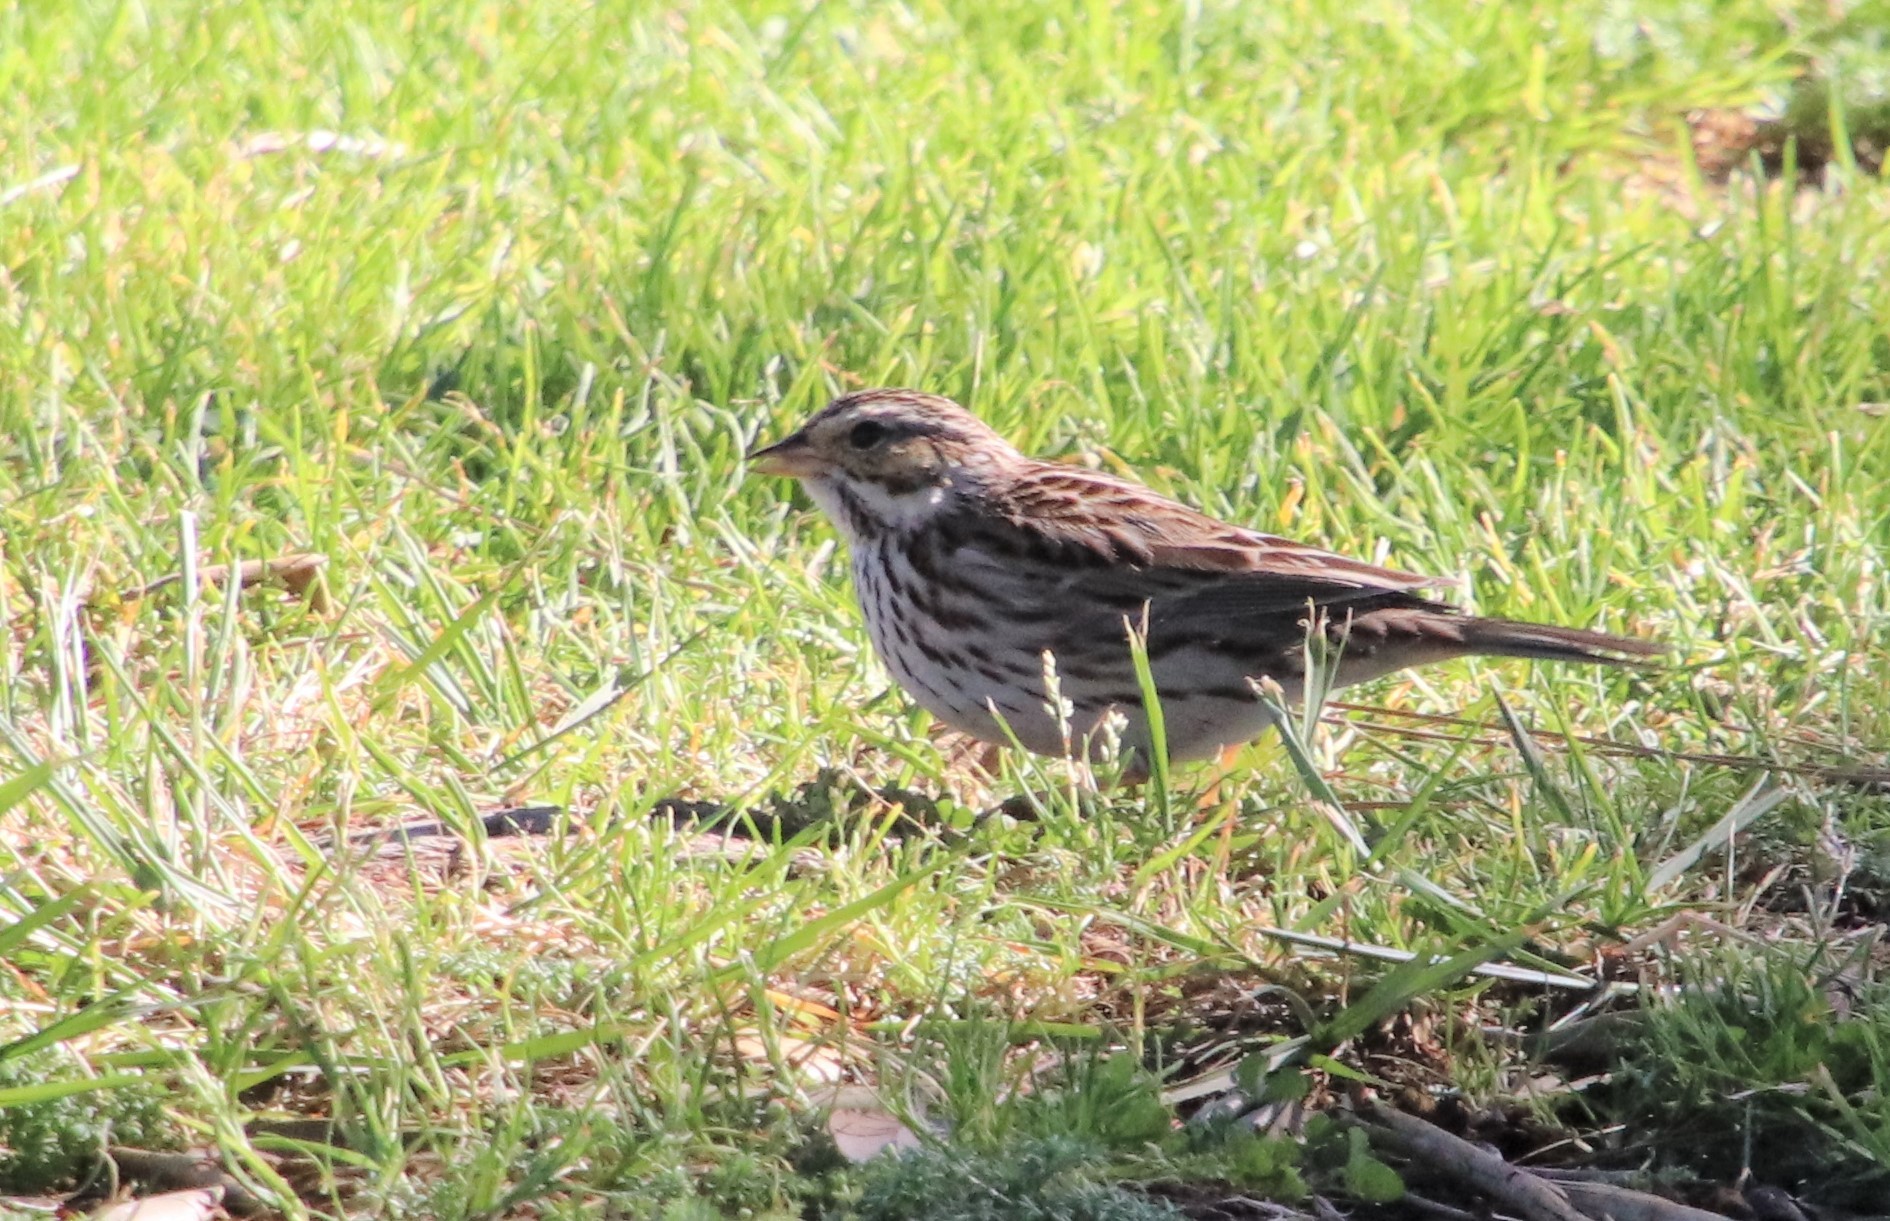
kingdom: Animalia
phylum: Chordata
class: Aves
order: Passeriformes
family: Passerellidae
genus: Passerculus
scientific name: Passerculus sandwichensis
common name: Savannah sparrow
